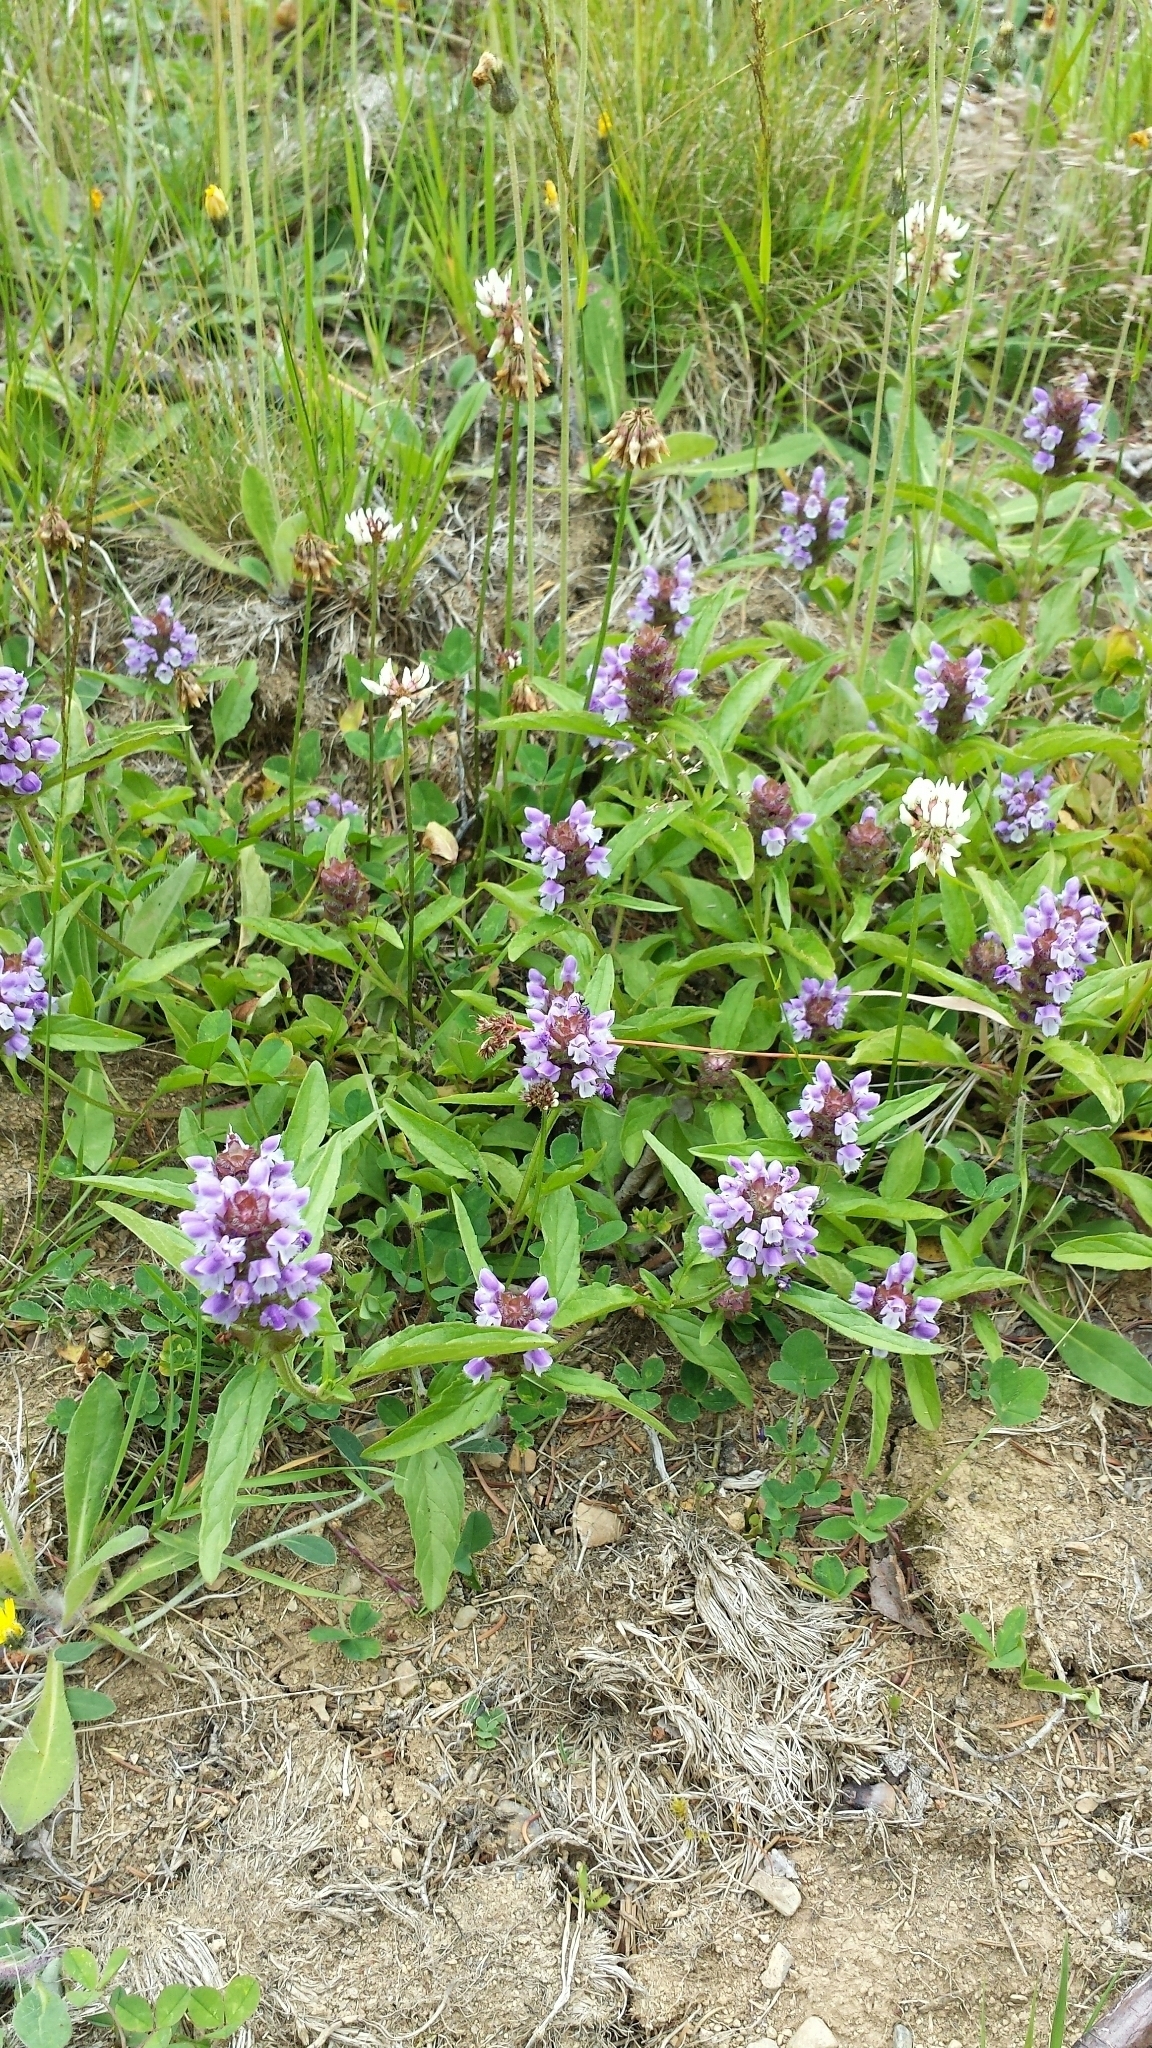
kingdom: Plantae
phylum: Tracheophyta
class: Magnoliopsida
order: Lamiales
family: Lamiaceae
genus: Prunella
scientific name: Prunella vulgaris
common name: Heal-all
